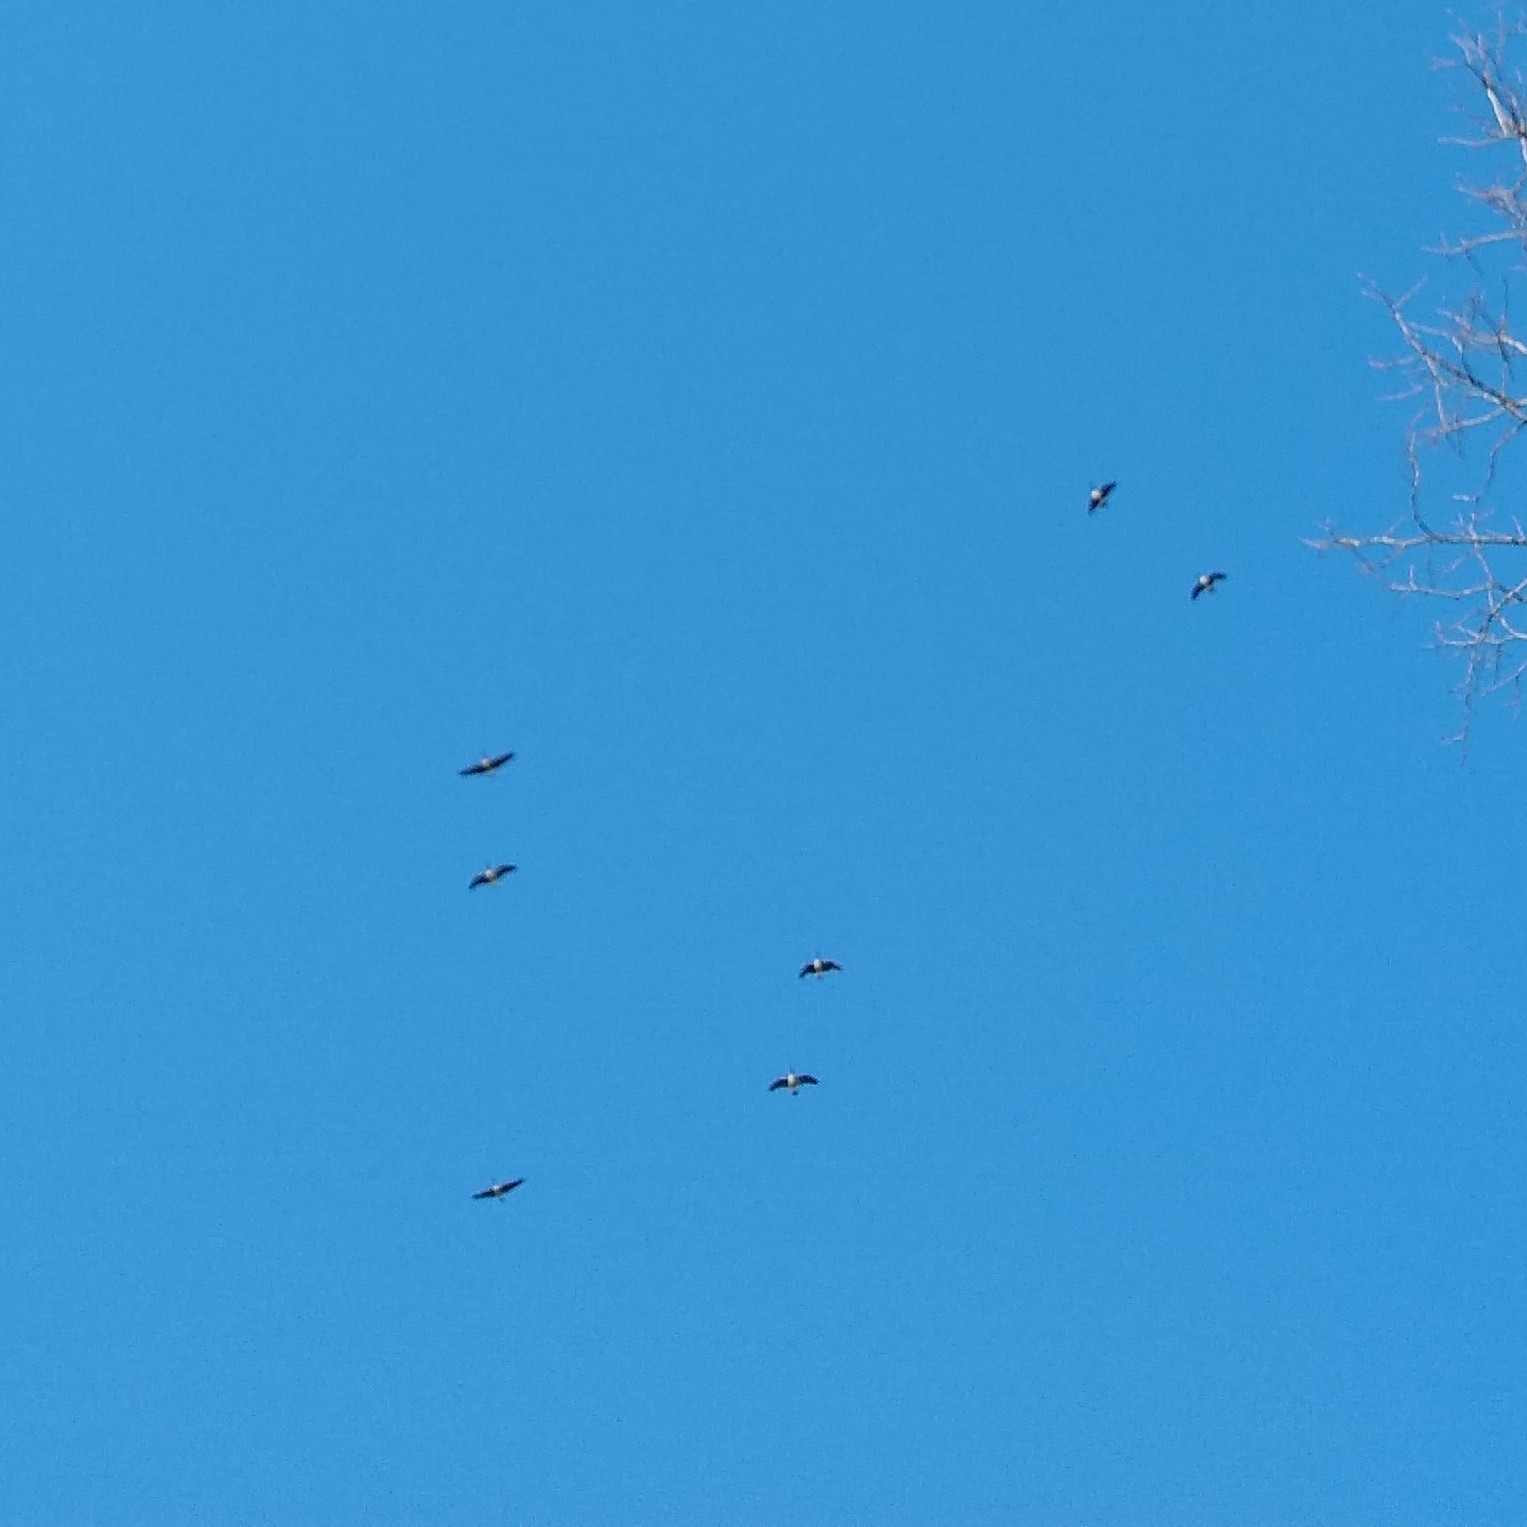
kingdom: Animalia
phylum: Chordata
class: Aves
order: Anseriformes
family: Anatidae
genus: Branta
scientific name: Branta canadensis
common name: Canada goose
